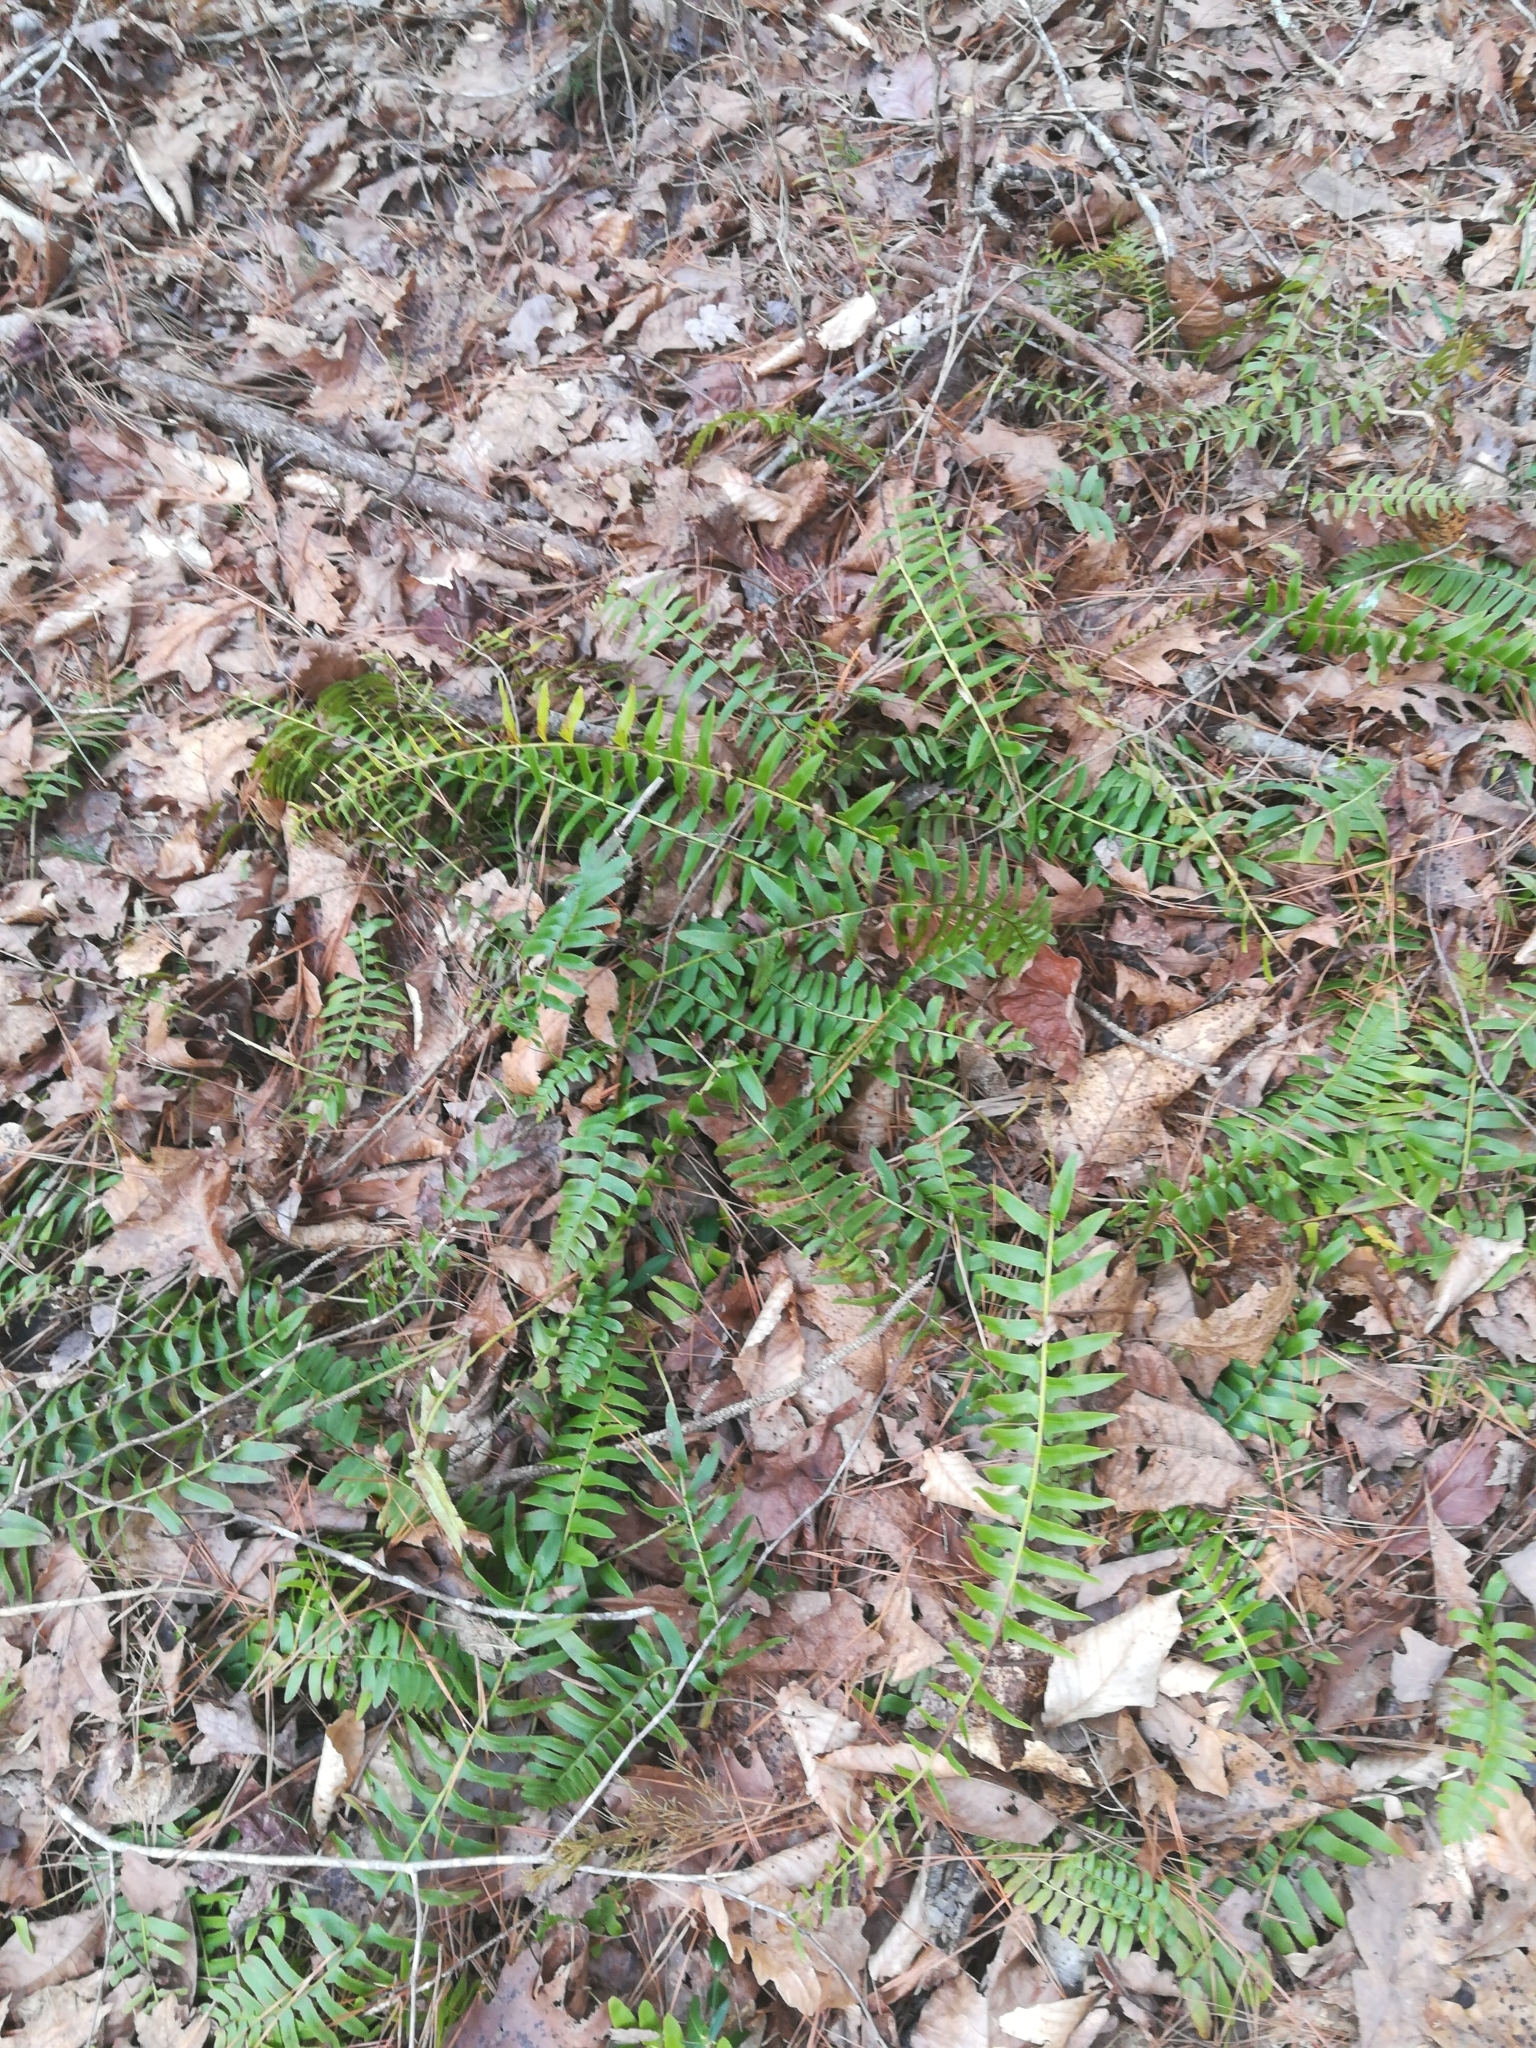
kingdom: Plantae
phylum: Tracheophyta
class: Polypodiopsida
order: Polypodiales
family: Dryopteridaceae
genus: Polystichum
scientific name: Polystichum acrostichoides
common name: Christmas fern
